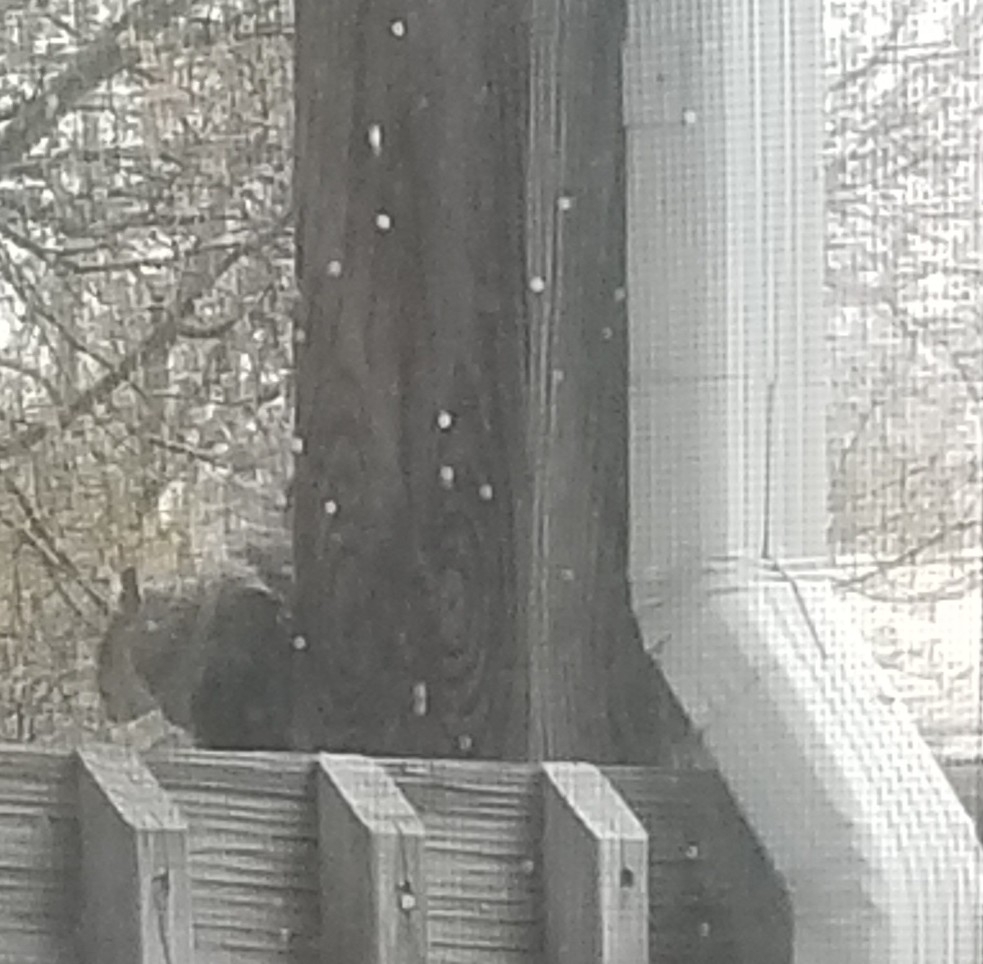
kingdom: Animalia
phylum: Chordata
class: Mammalia
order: Rodentia
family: Sciuridae
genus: Sciurus
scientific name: Sciurus carolinensis
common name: Eastern gray squirrel
